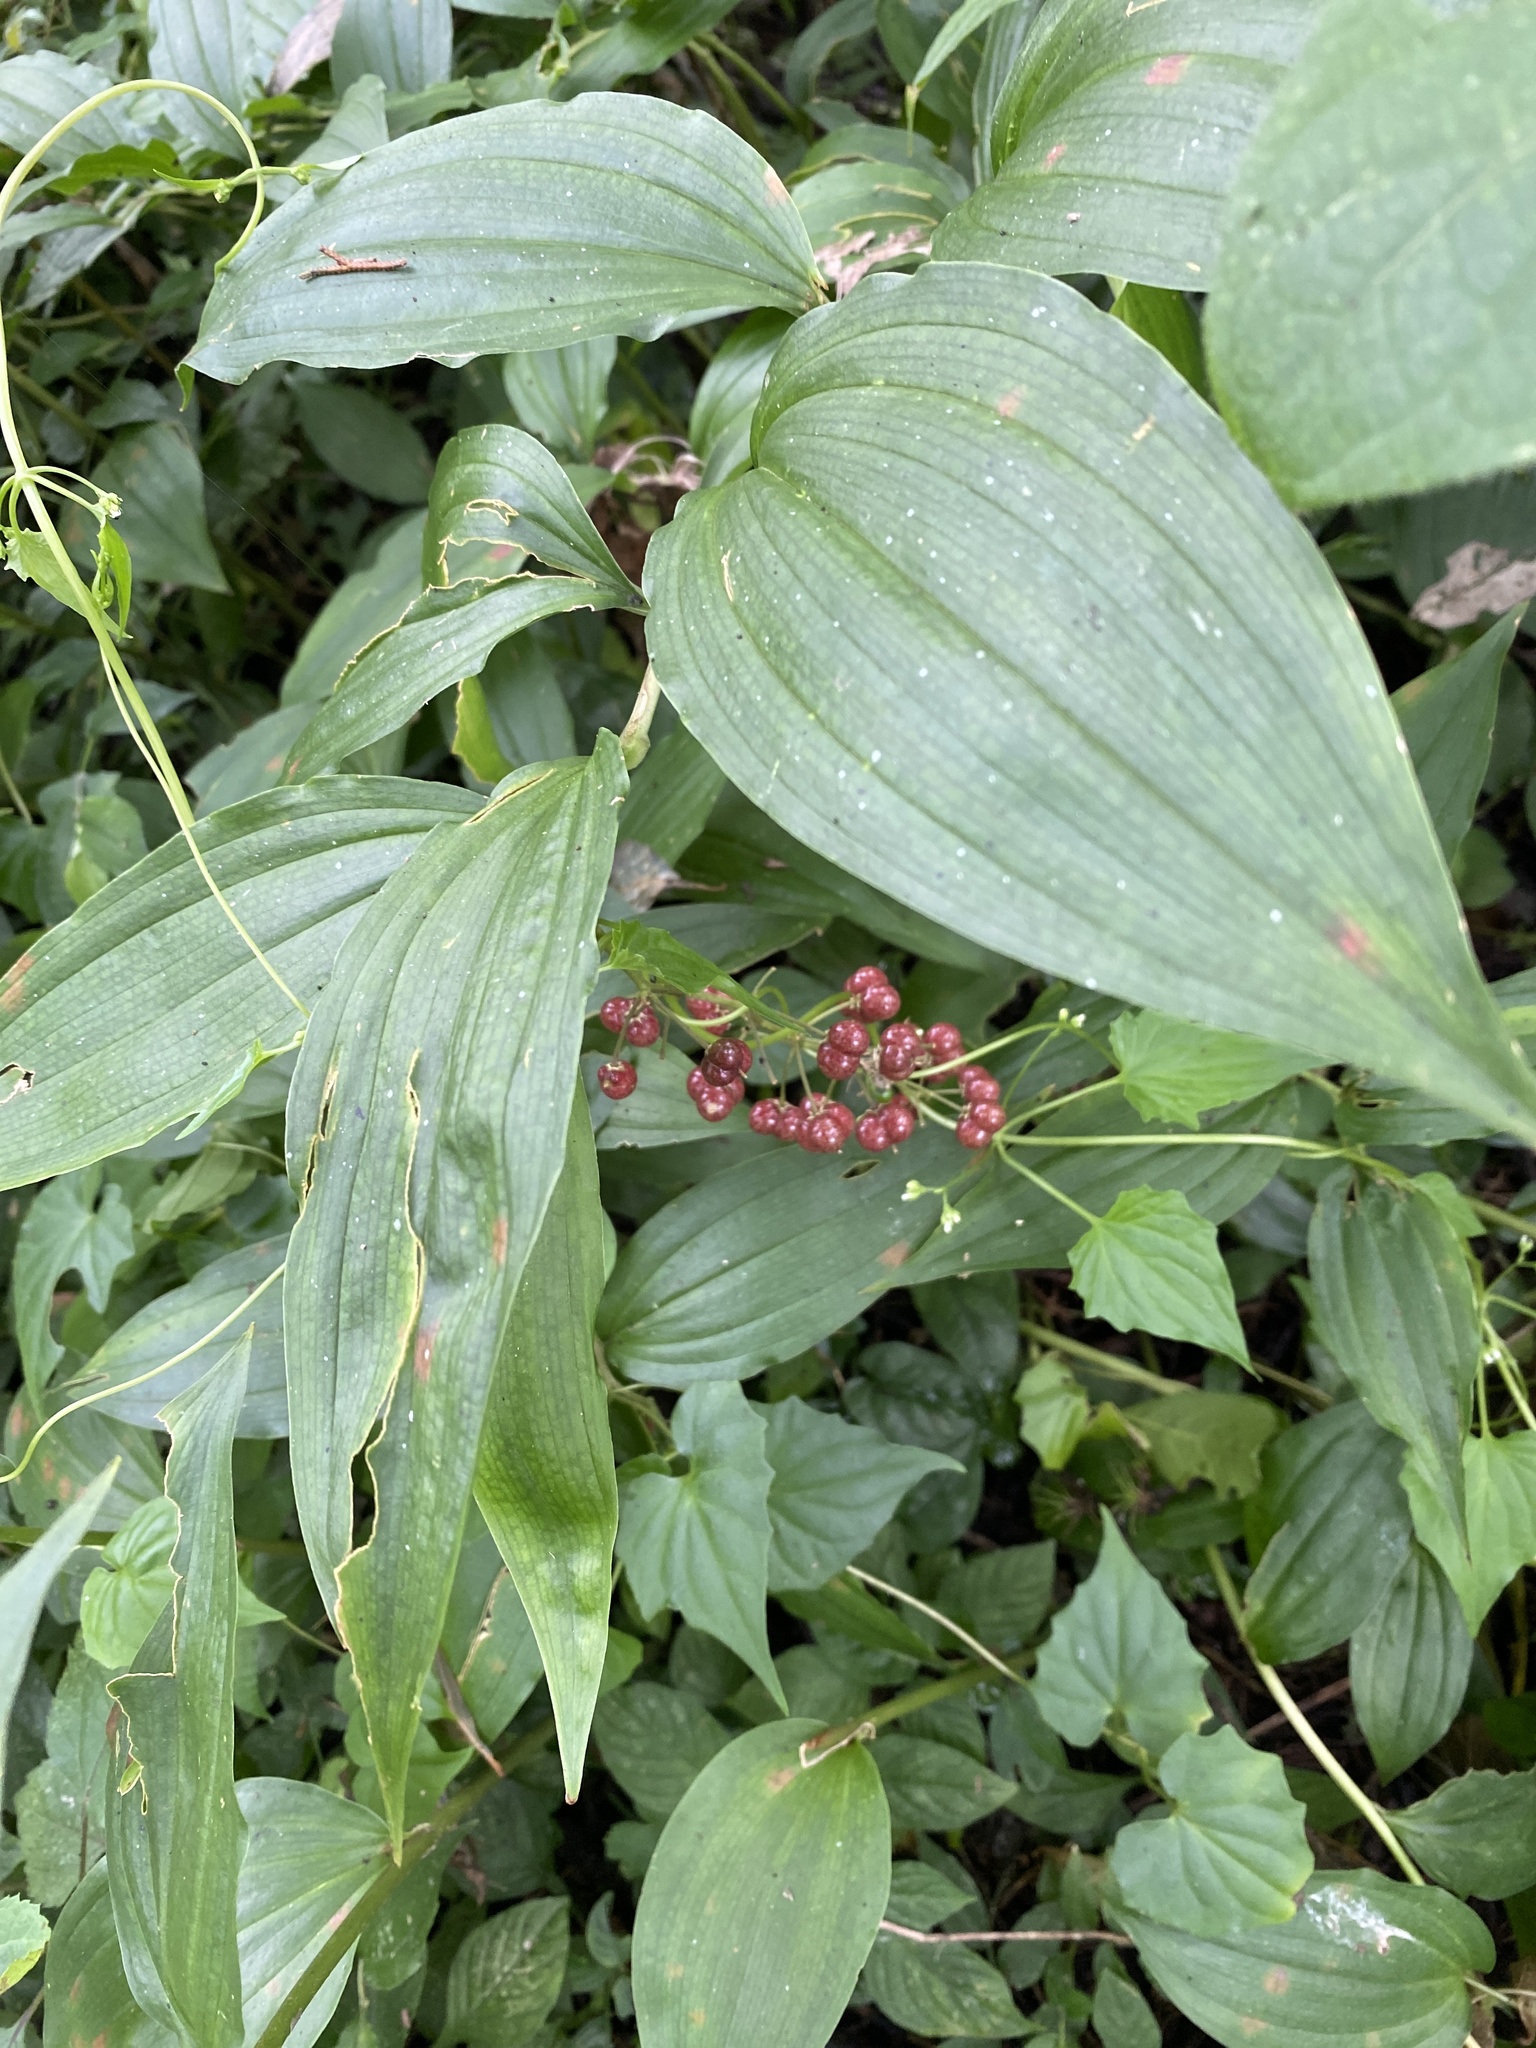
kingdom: Plantae
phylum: Tracheophyta
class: Liliopsida
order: Asparagales
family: Asparagaceae
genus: Maianthemum
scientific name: Maianthemum flexuosum
